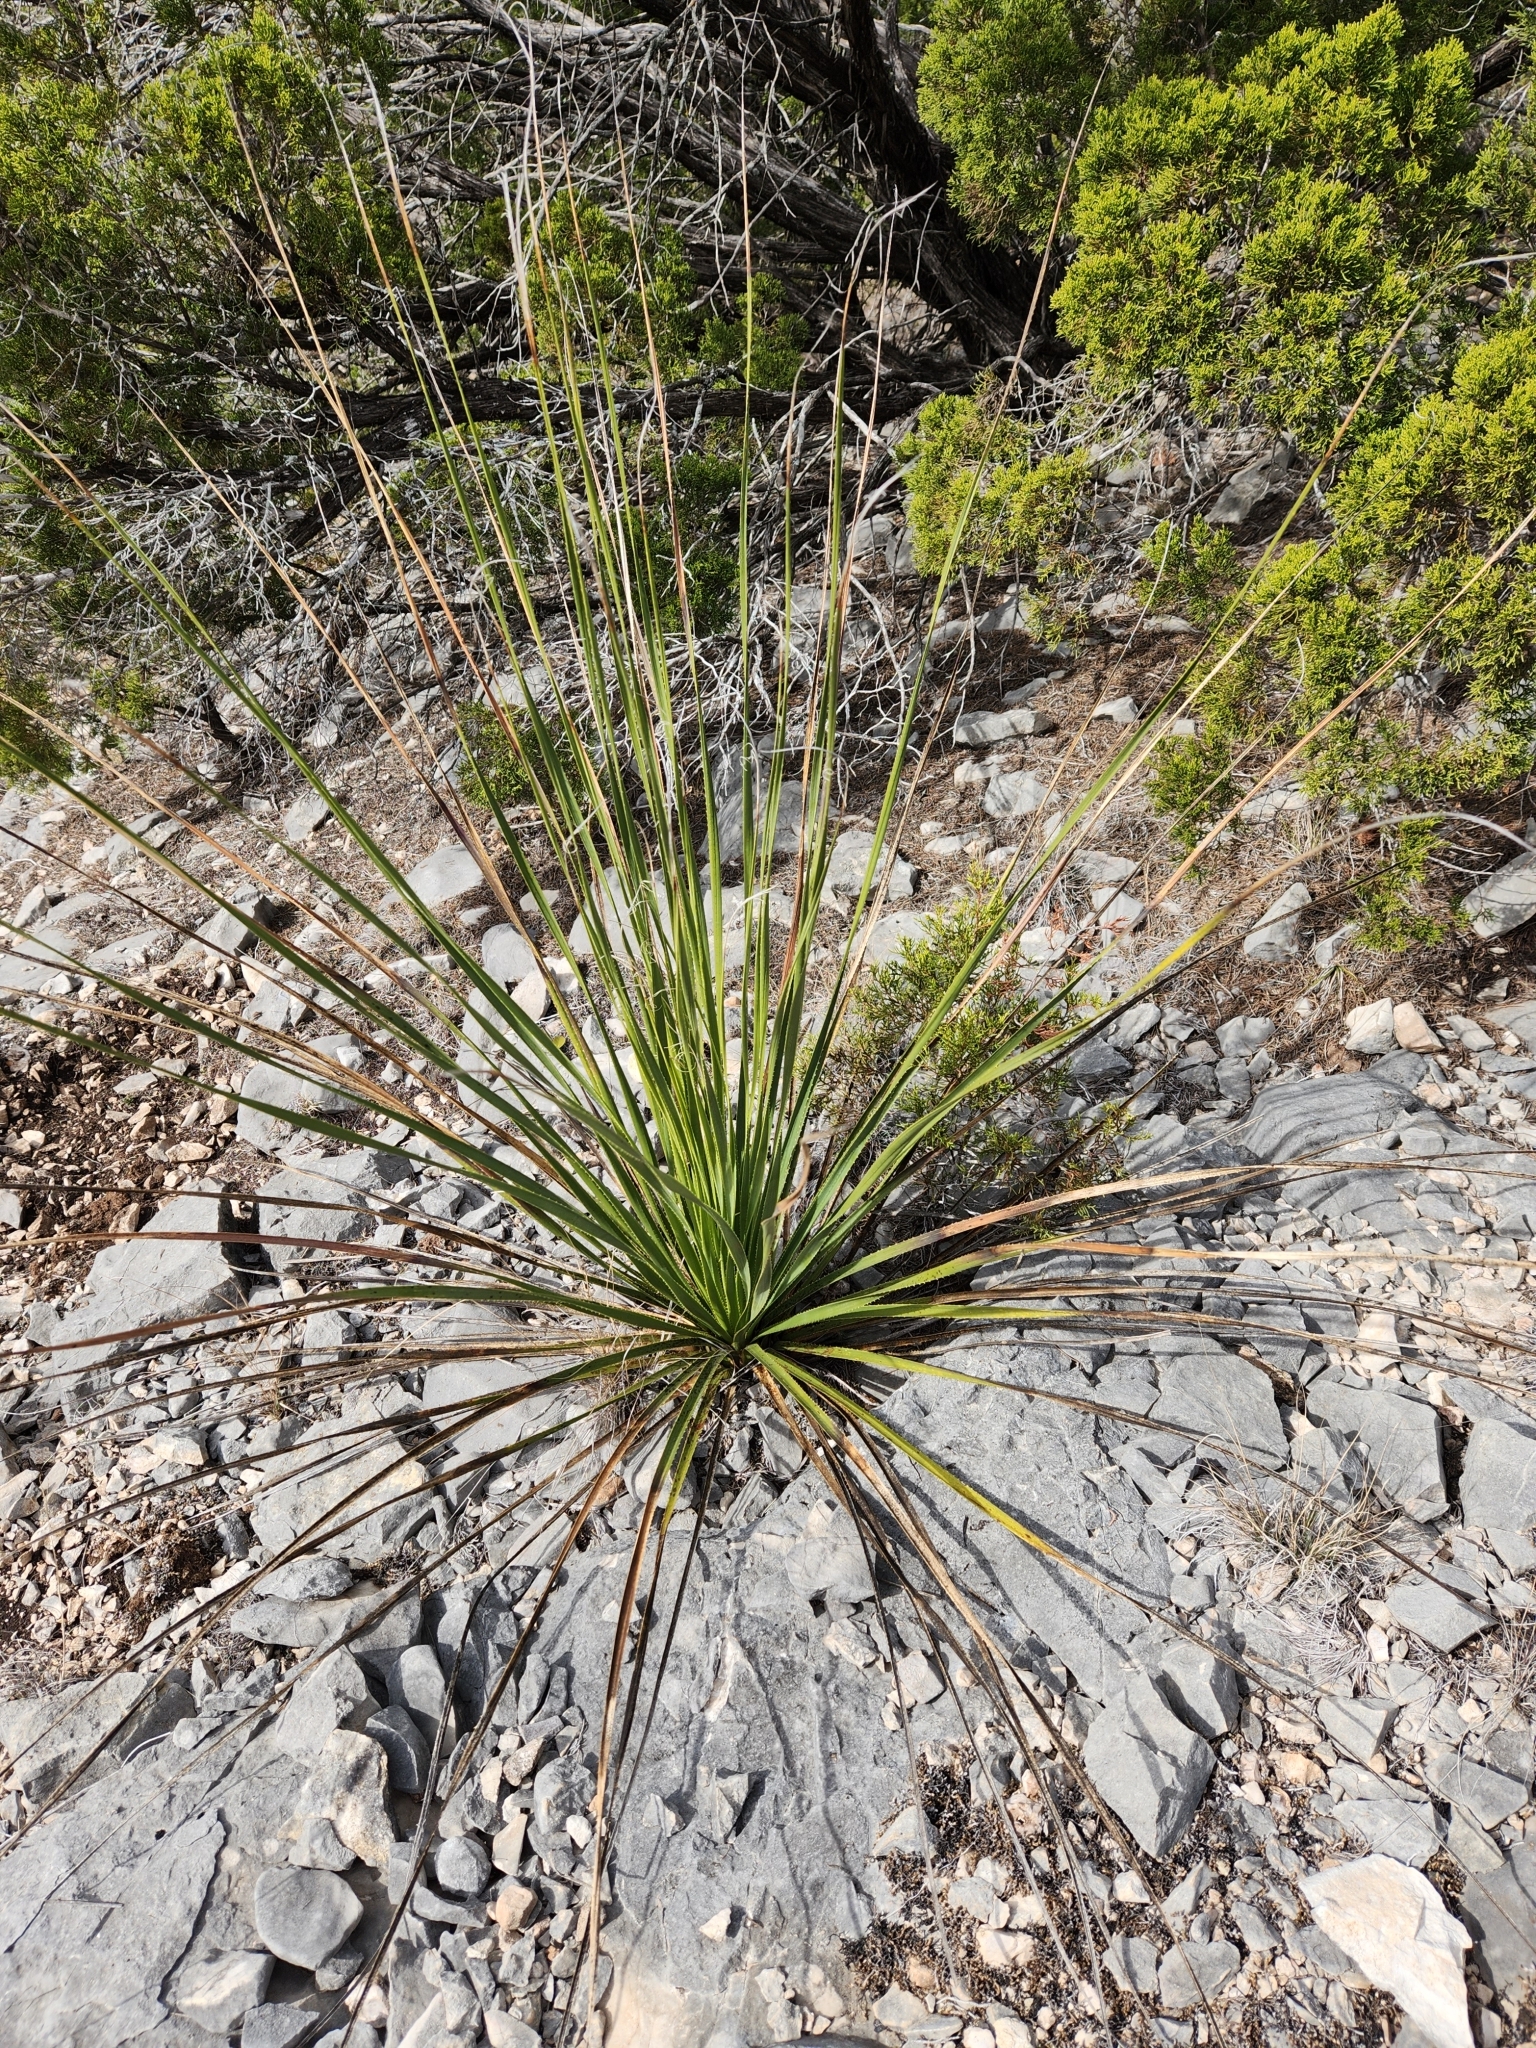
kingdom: Plantae
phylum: Tracheophyta
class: Liliopsida
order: Asparagales
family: Asparagaceae
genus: Dasylirion
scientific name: Dasylirion texanum
